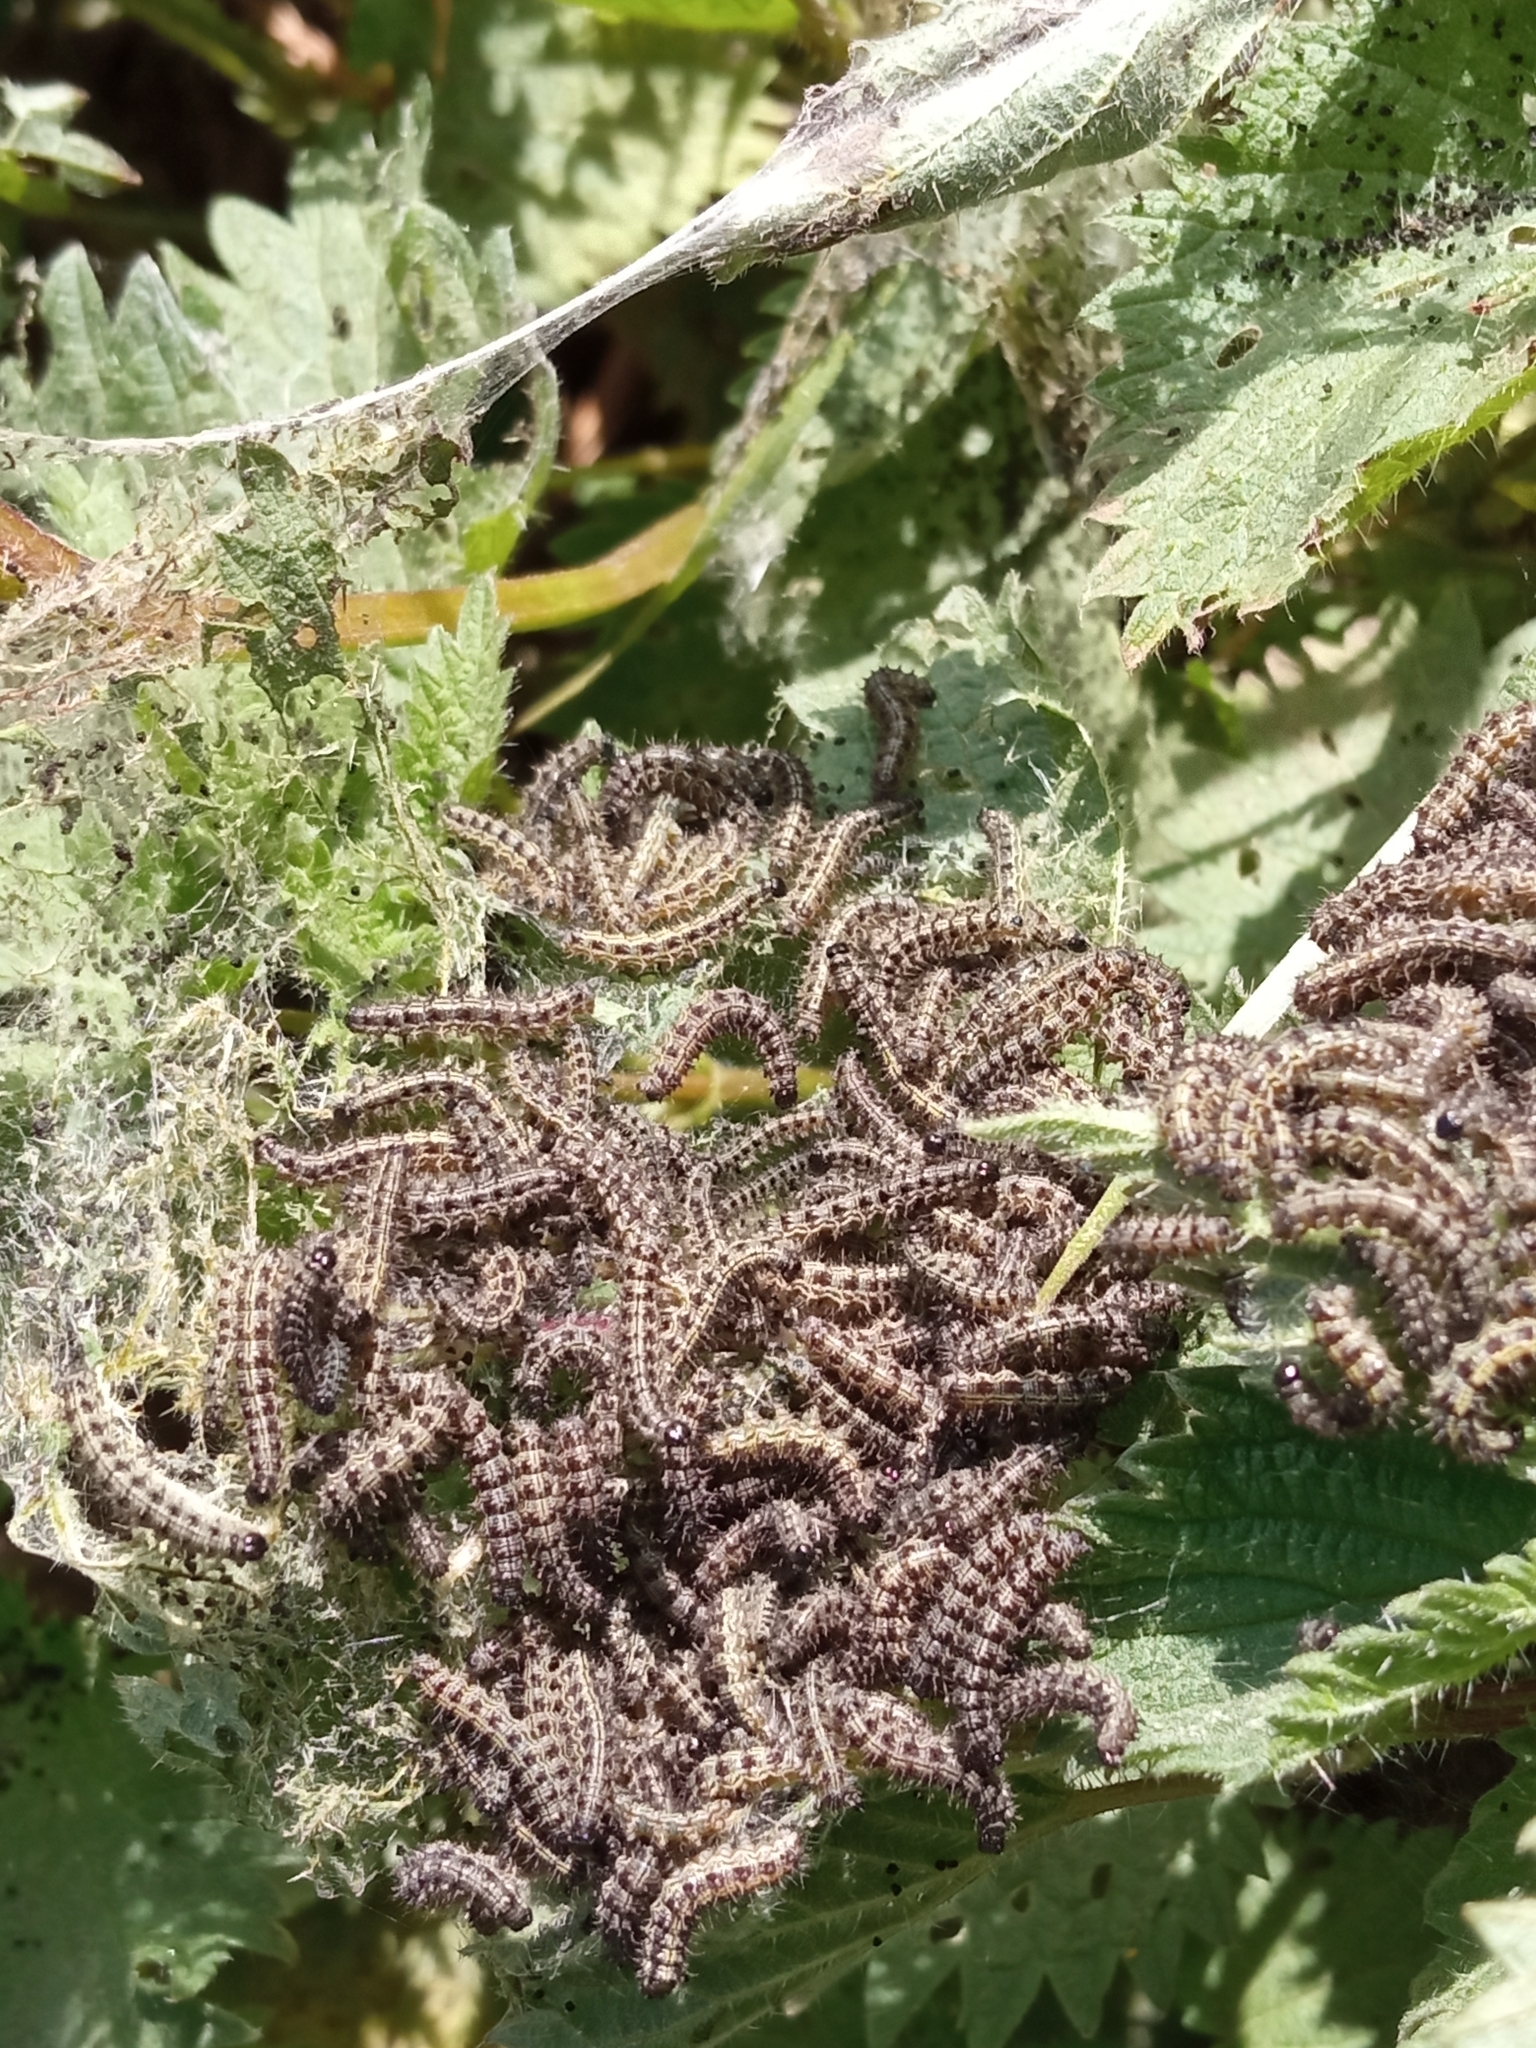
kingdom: Animalia
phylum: Arthropoda
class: Insecta
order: Lepidoptera
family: Nymphalidae
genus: Aglais
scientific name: Aglais urticae
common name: Small tortoiseshell
